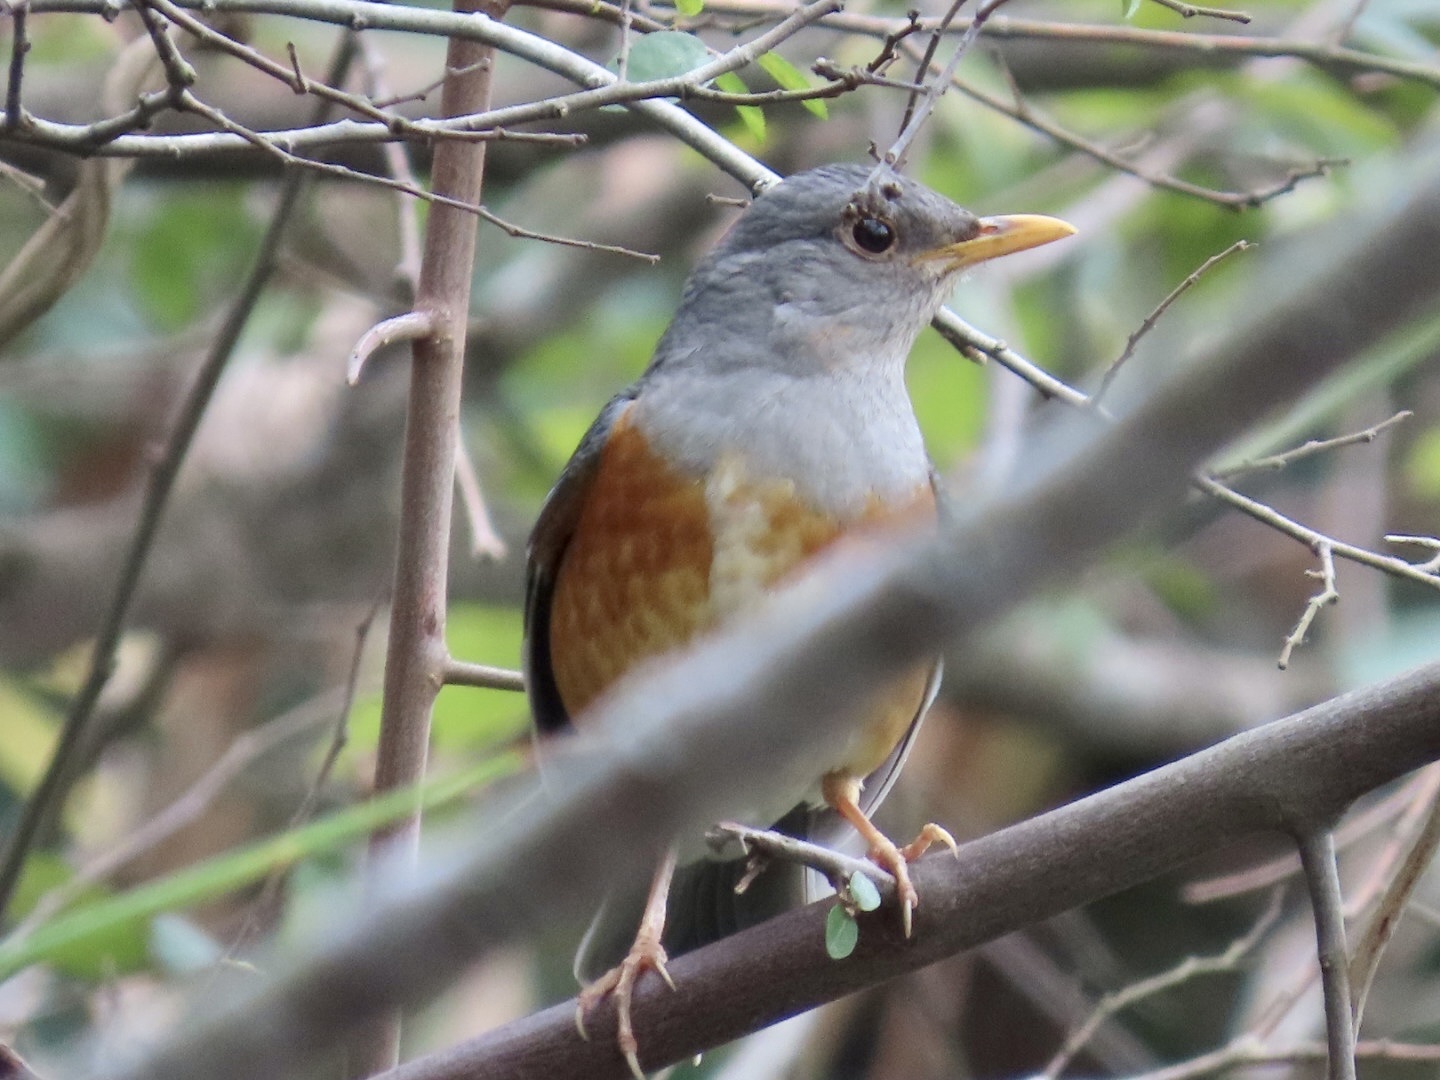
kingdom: Animalia
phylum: Chordata
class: Aves
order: Passeriformes
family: Turdidae
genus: Turdus
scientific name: Turdus hortulorum
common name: Grey-backed thrush
